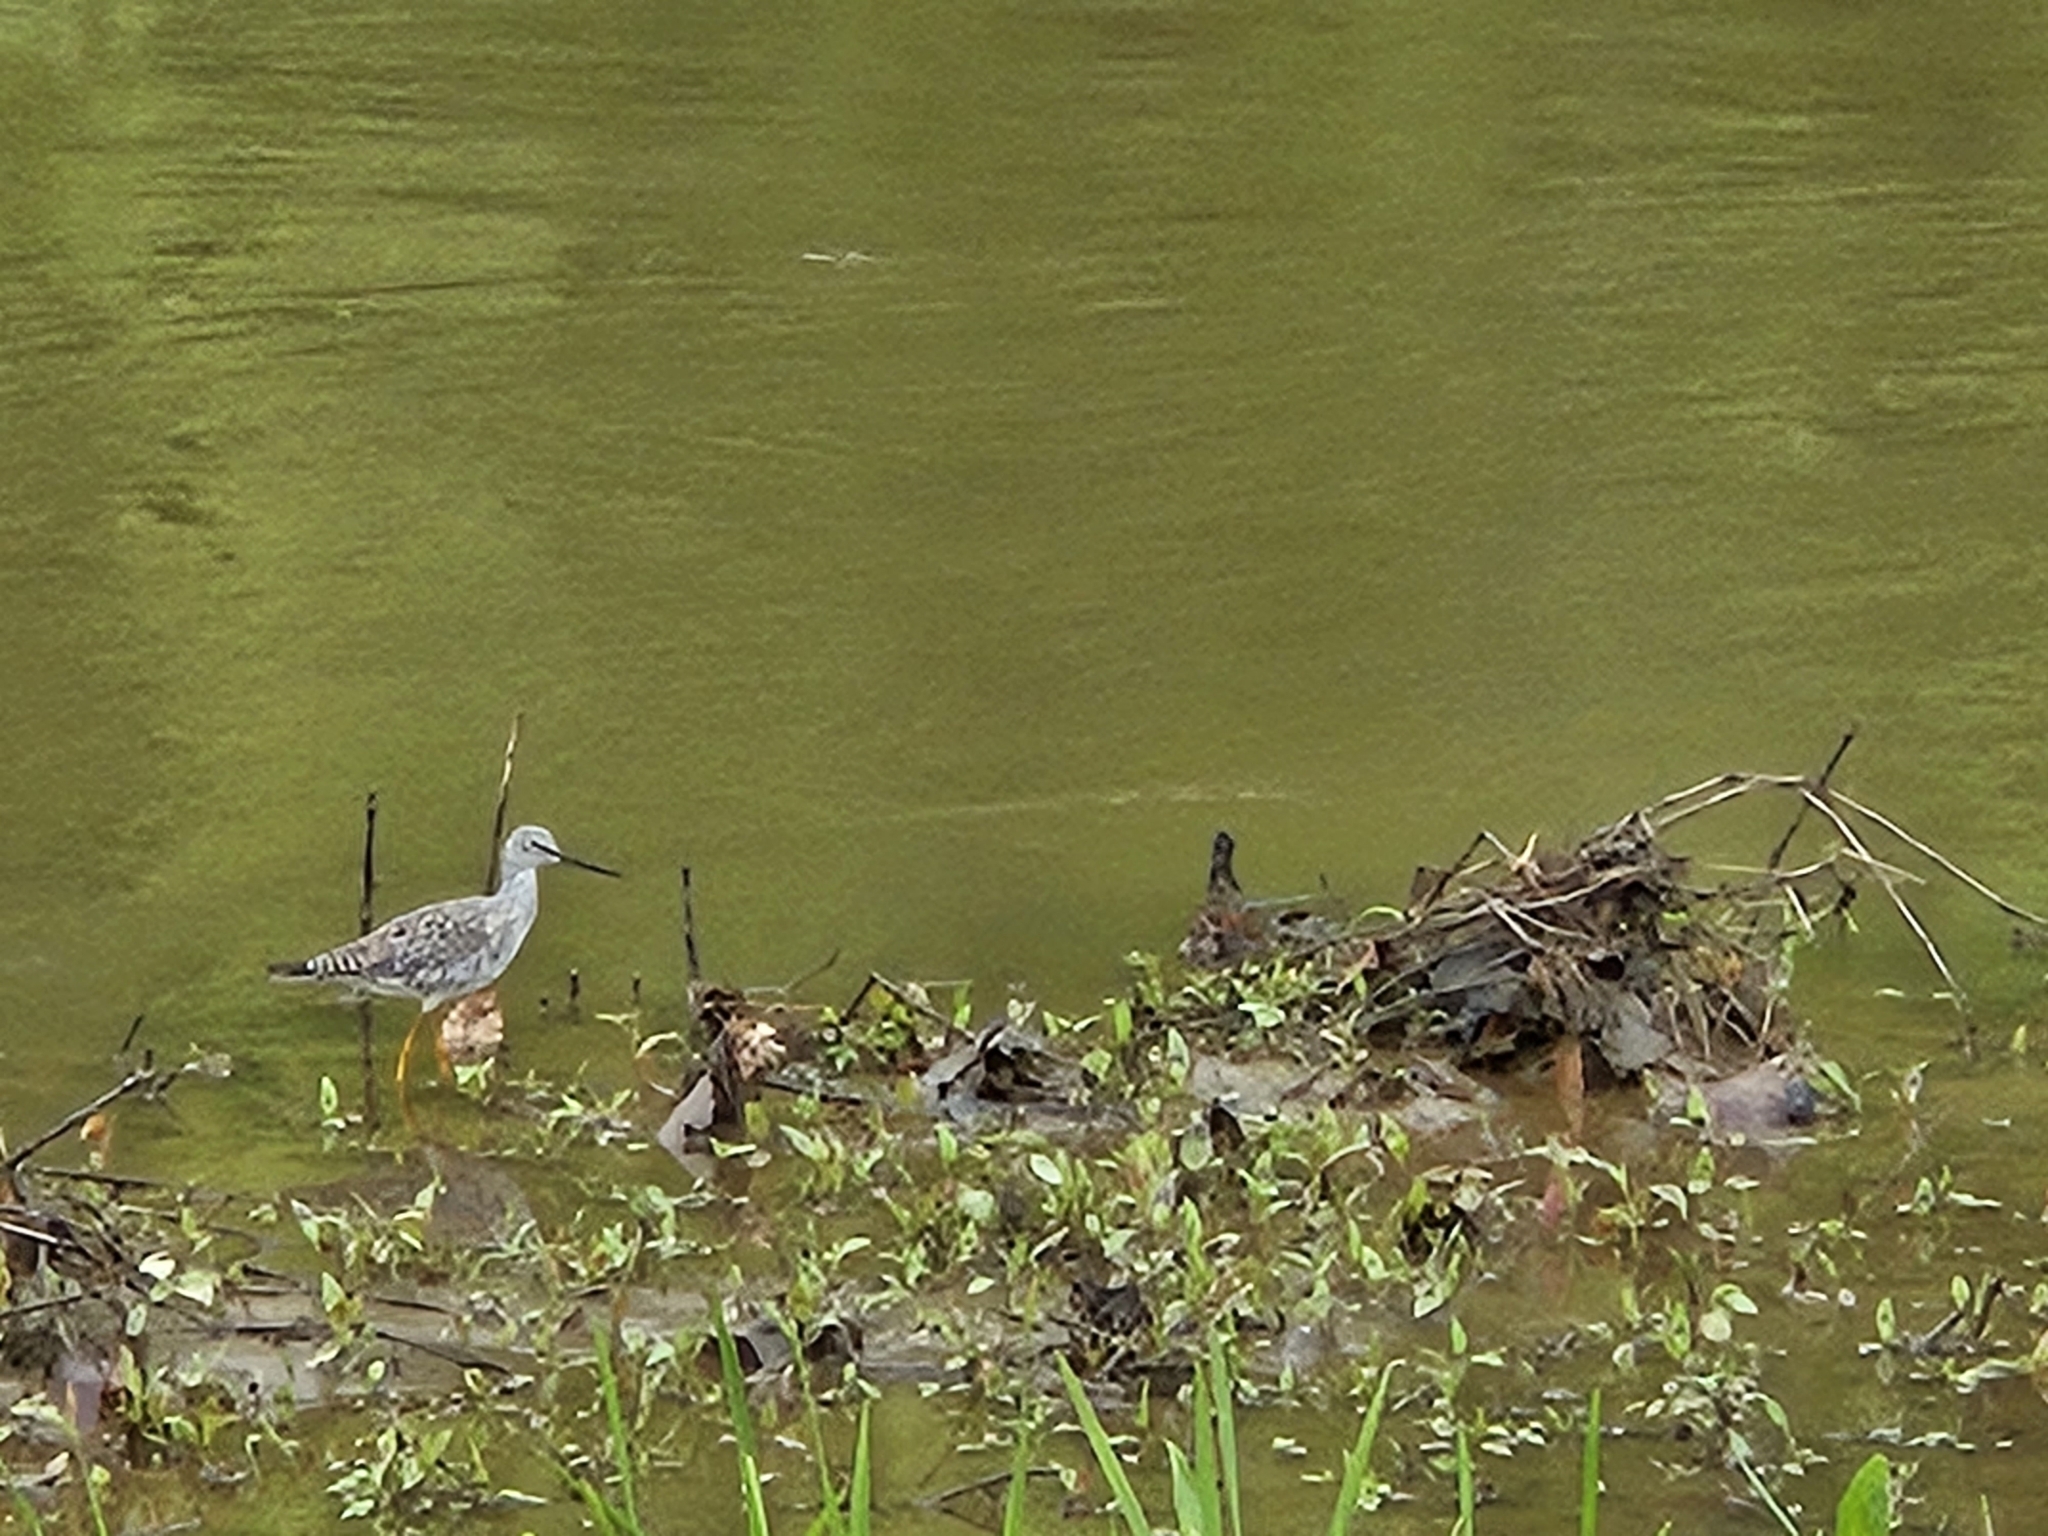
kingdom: Animalia
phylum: Chordata
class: Aves
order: Charadriiformes
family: Scolopacidae
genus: Tringa
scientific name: Tringa melanoleuca
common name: Greater yellowlegs
